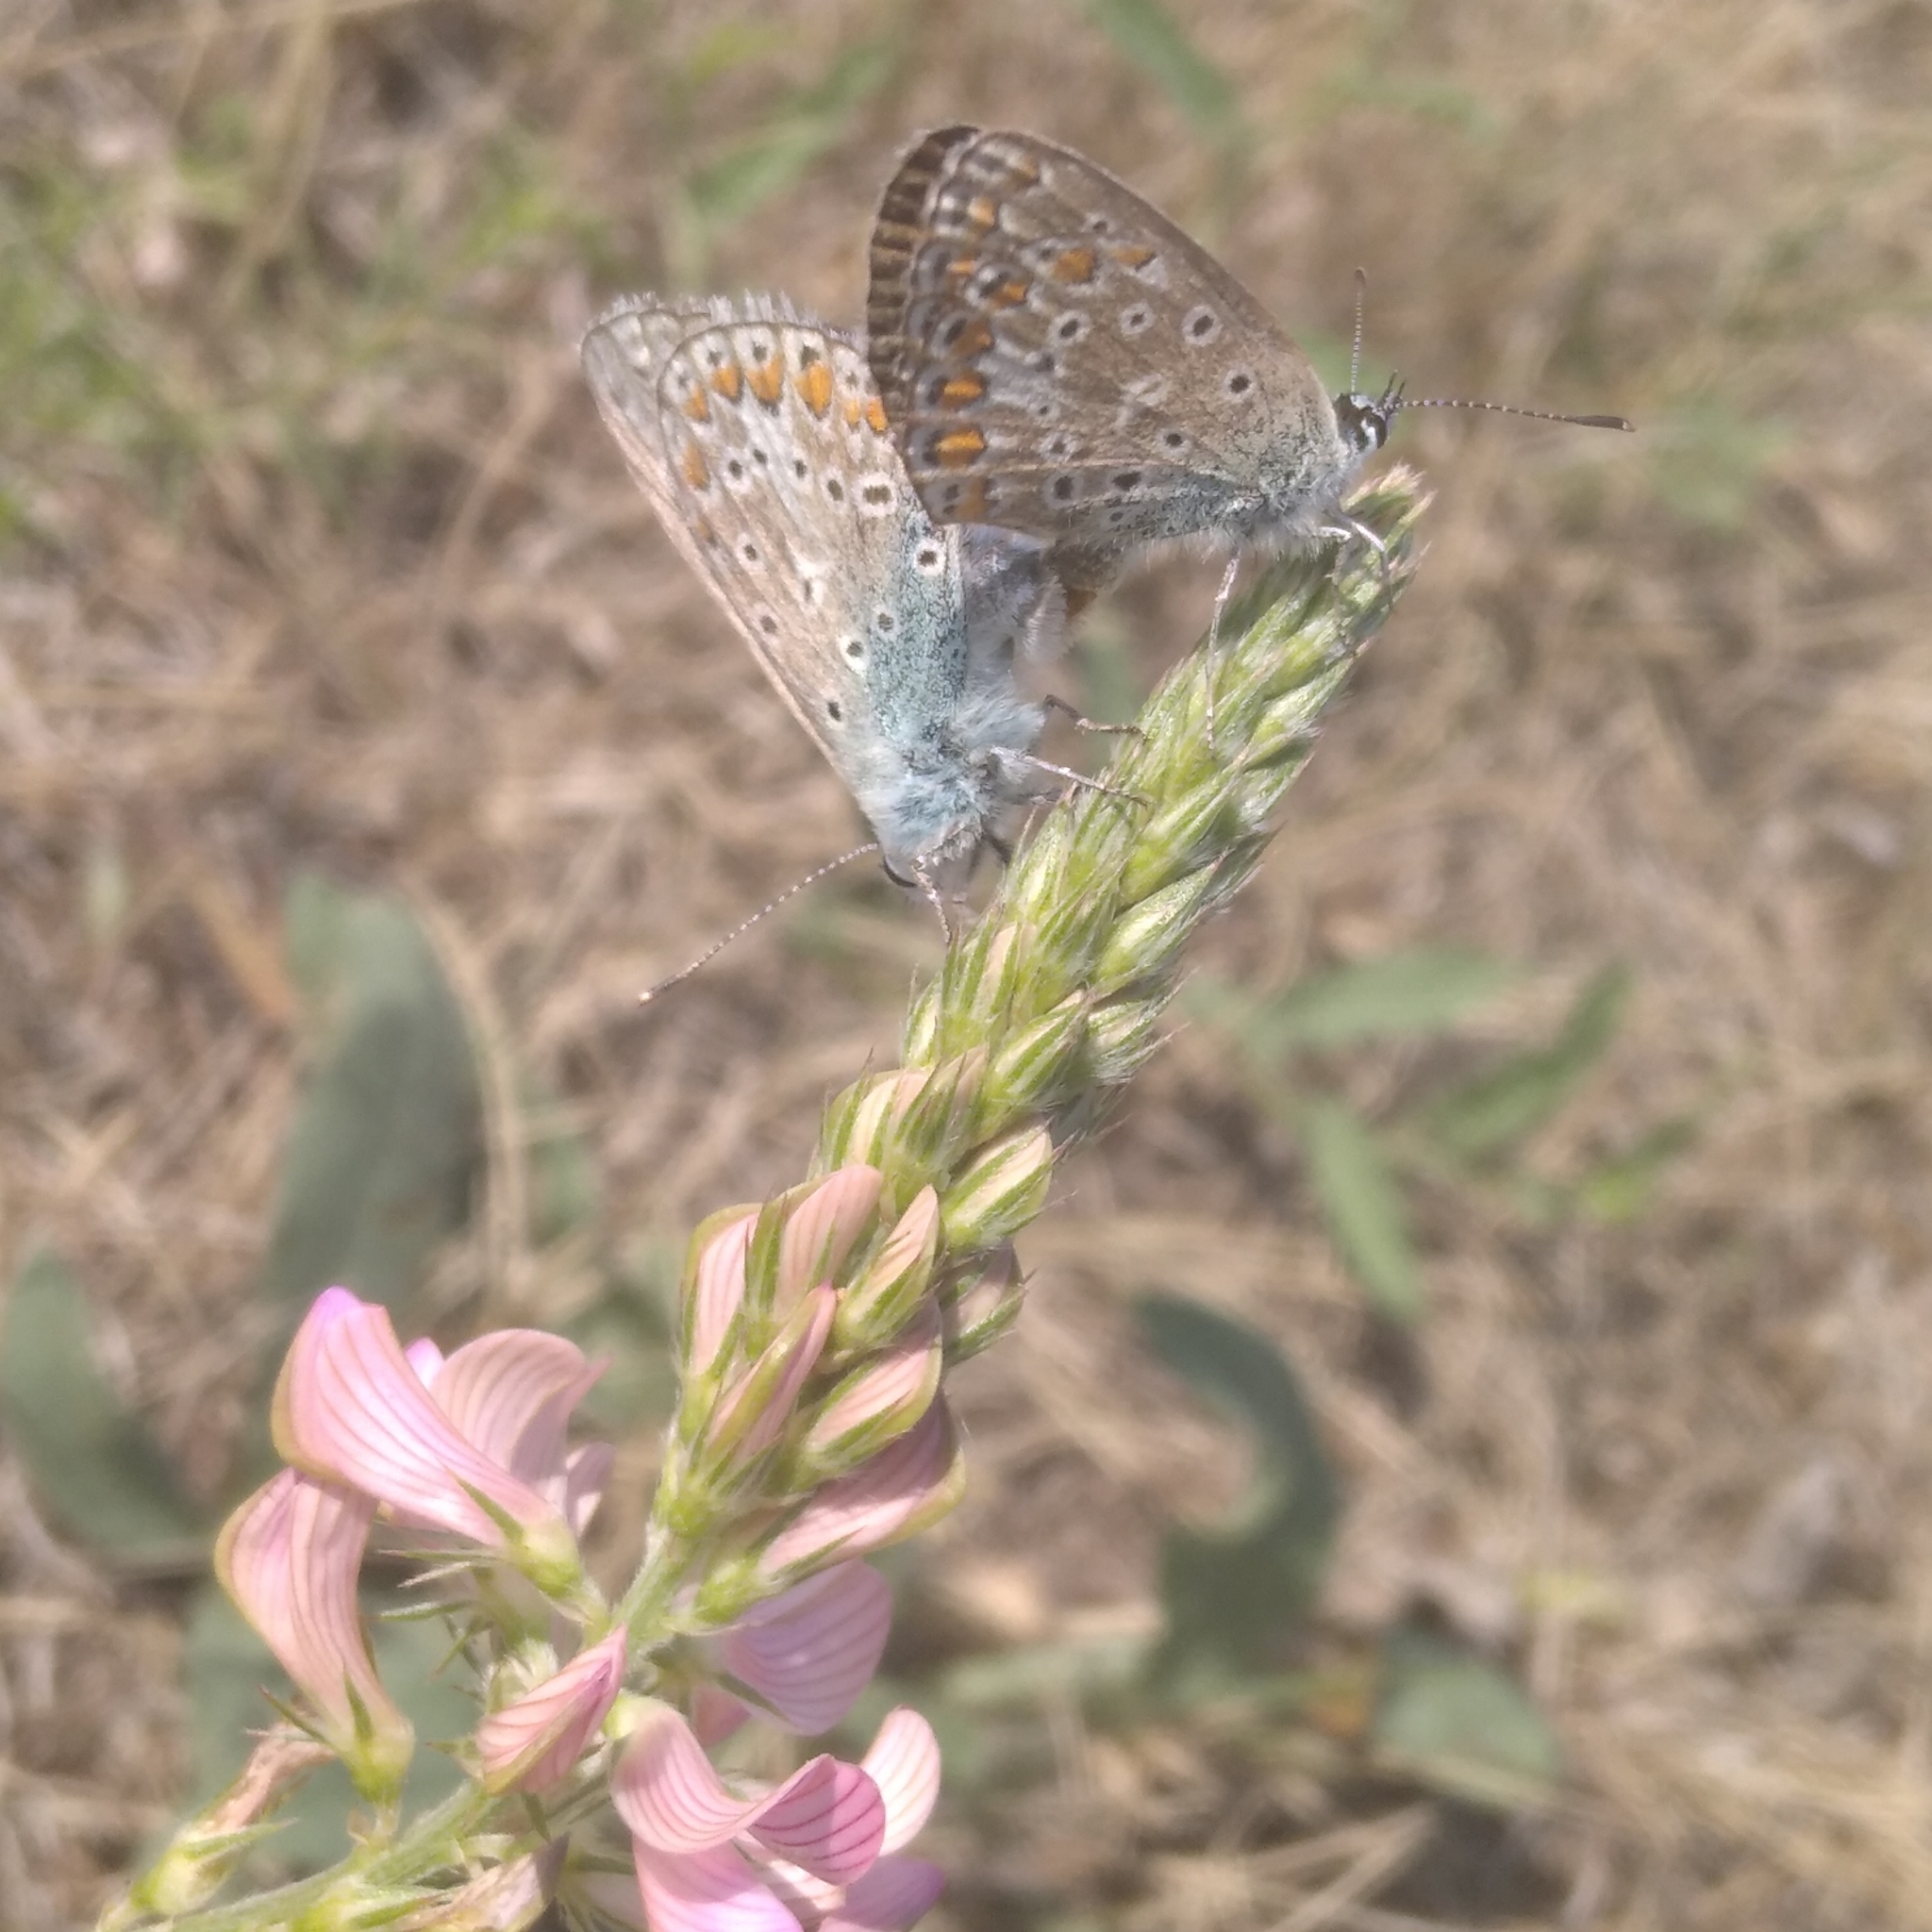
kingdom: Animalia
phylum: Arthropoda
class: Insecta
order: Lepidoptera
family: Lycaenidae
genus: Polyommatus
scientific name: Polyommatus
